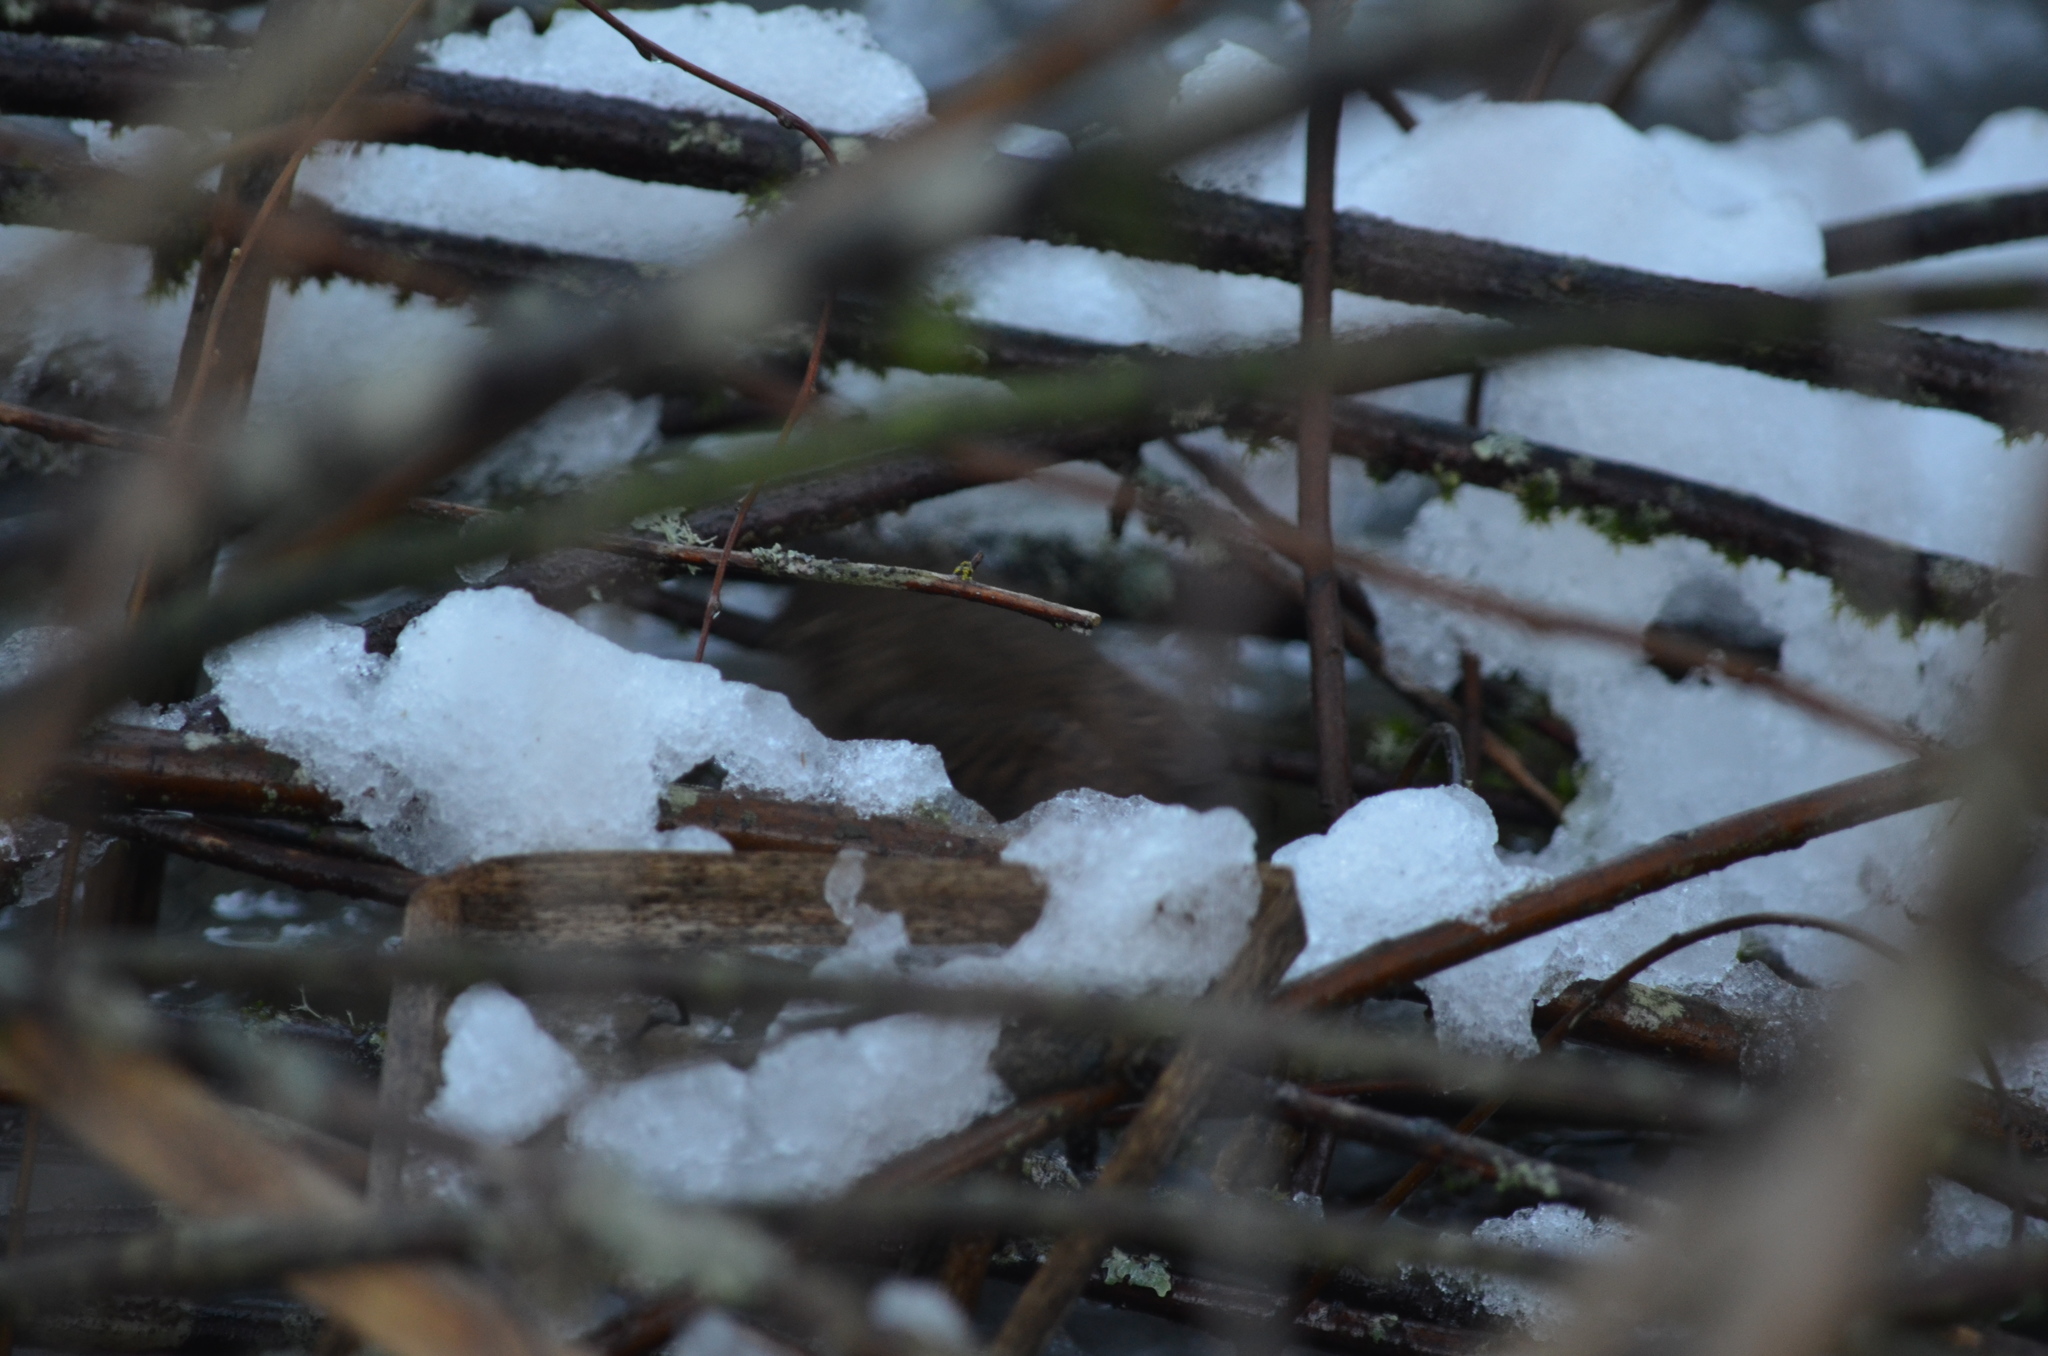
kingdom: Animalia
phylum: Chordata
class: Aves
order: Passeriformes
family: Troglodytidae
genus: Troglodytes
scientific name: Troglodytes pacificus
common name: Pacific wren
